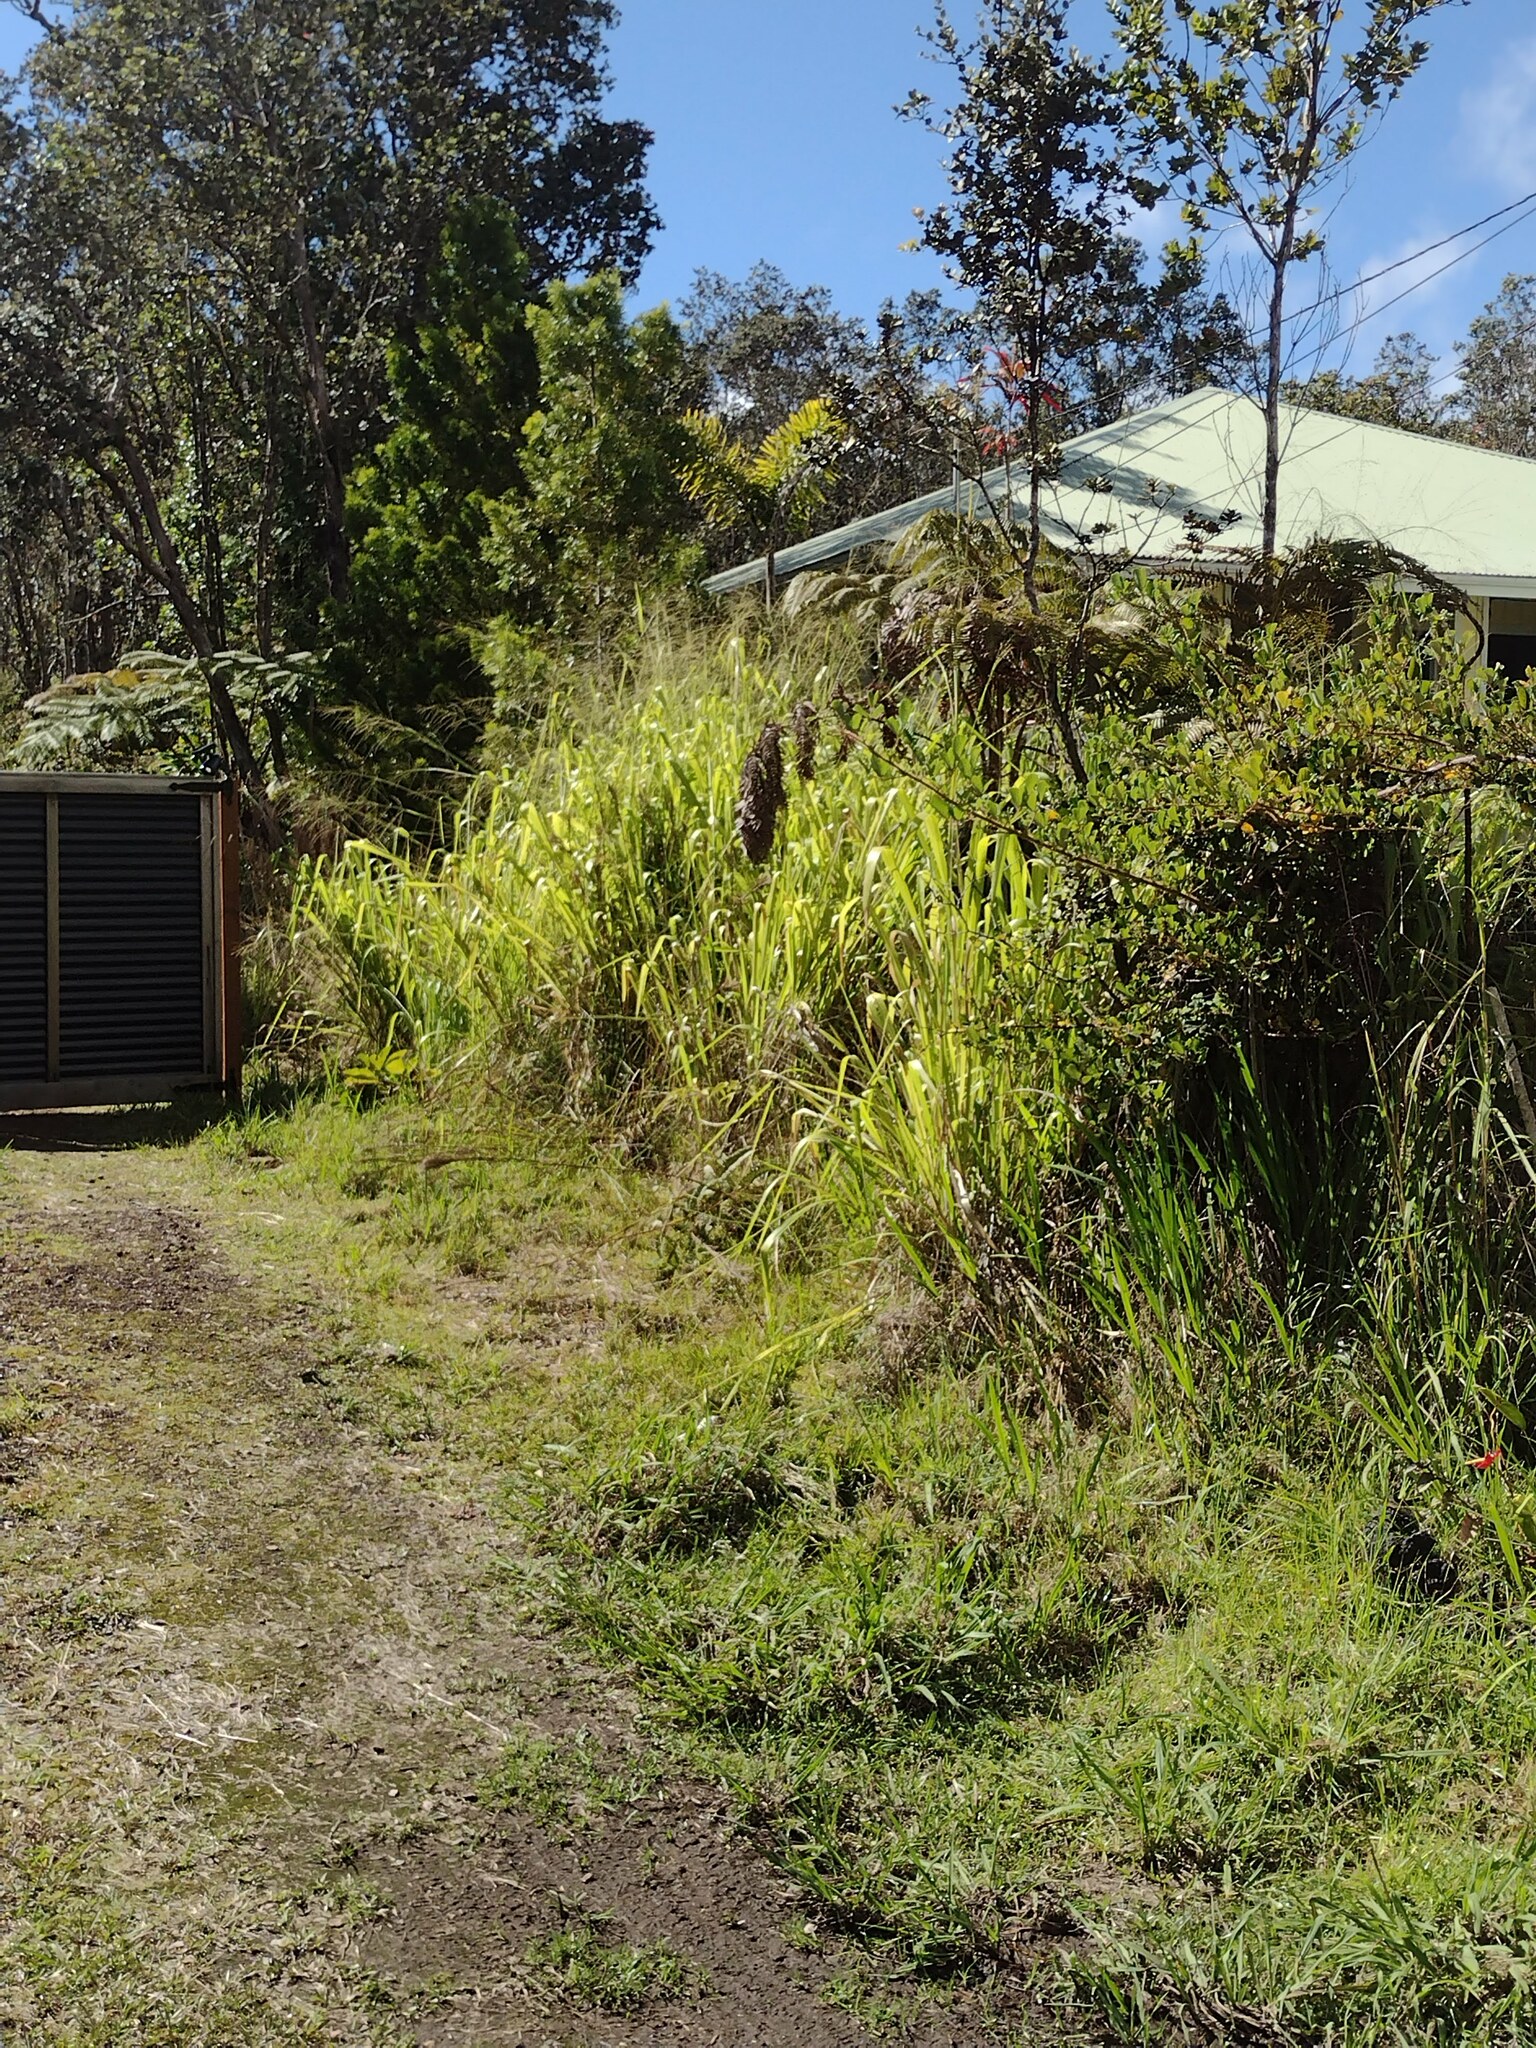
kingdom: Plantae
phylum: Tracheophyta
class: Liliopsida
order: Poales
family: Poaceae
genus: Megathyrsus
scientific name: Megathyrsus maximus
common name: Guineagrass
